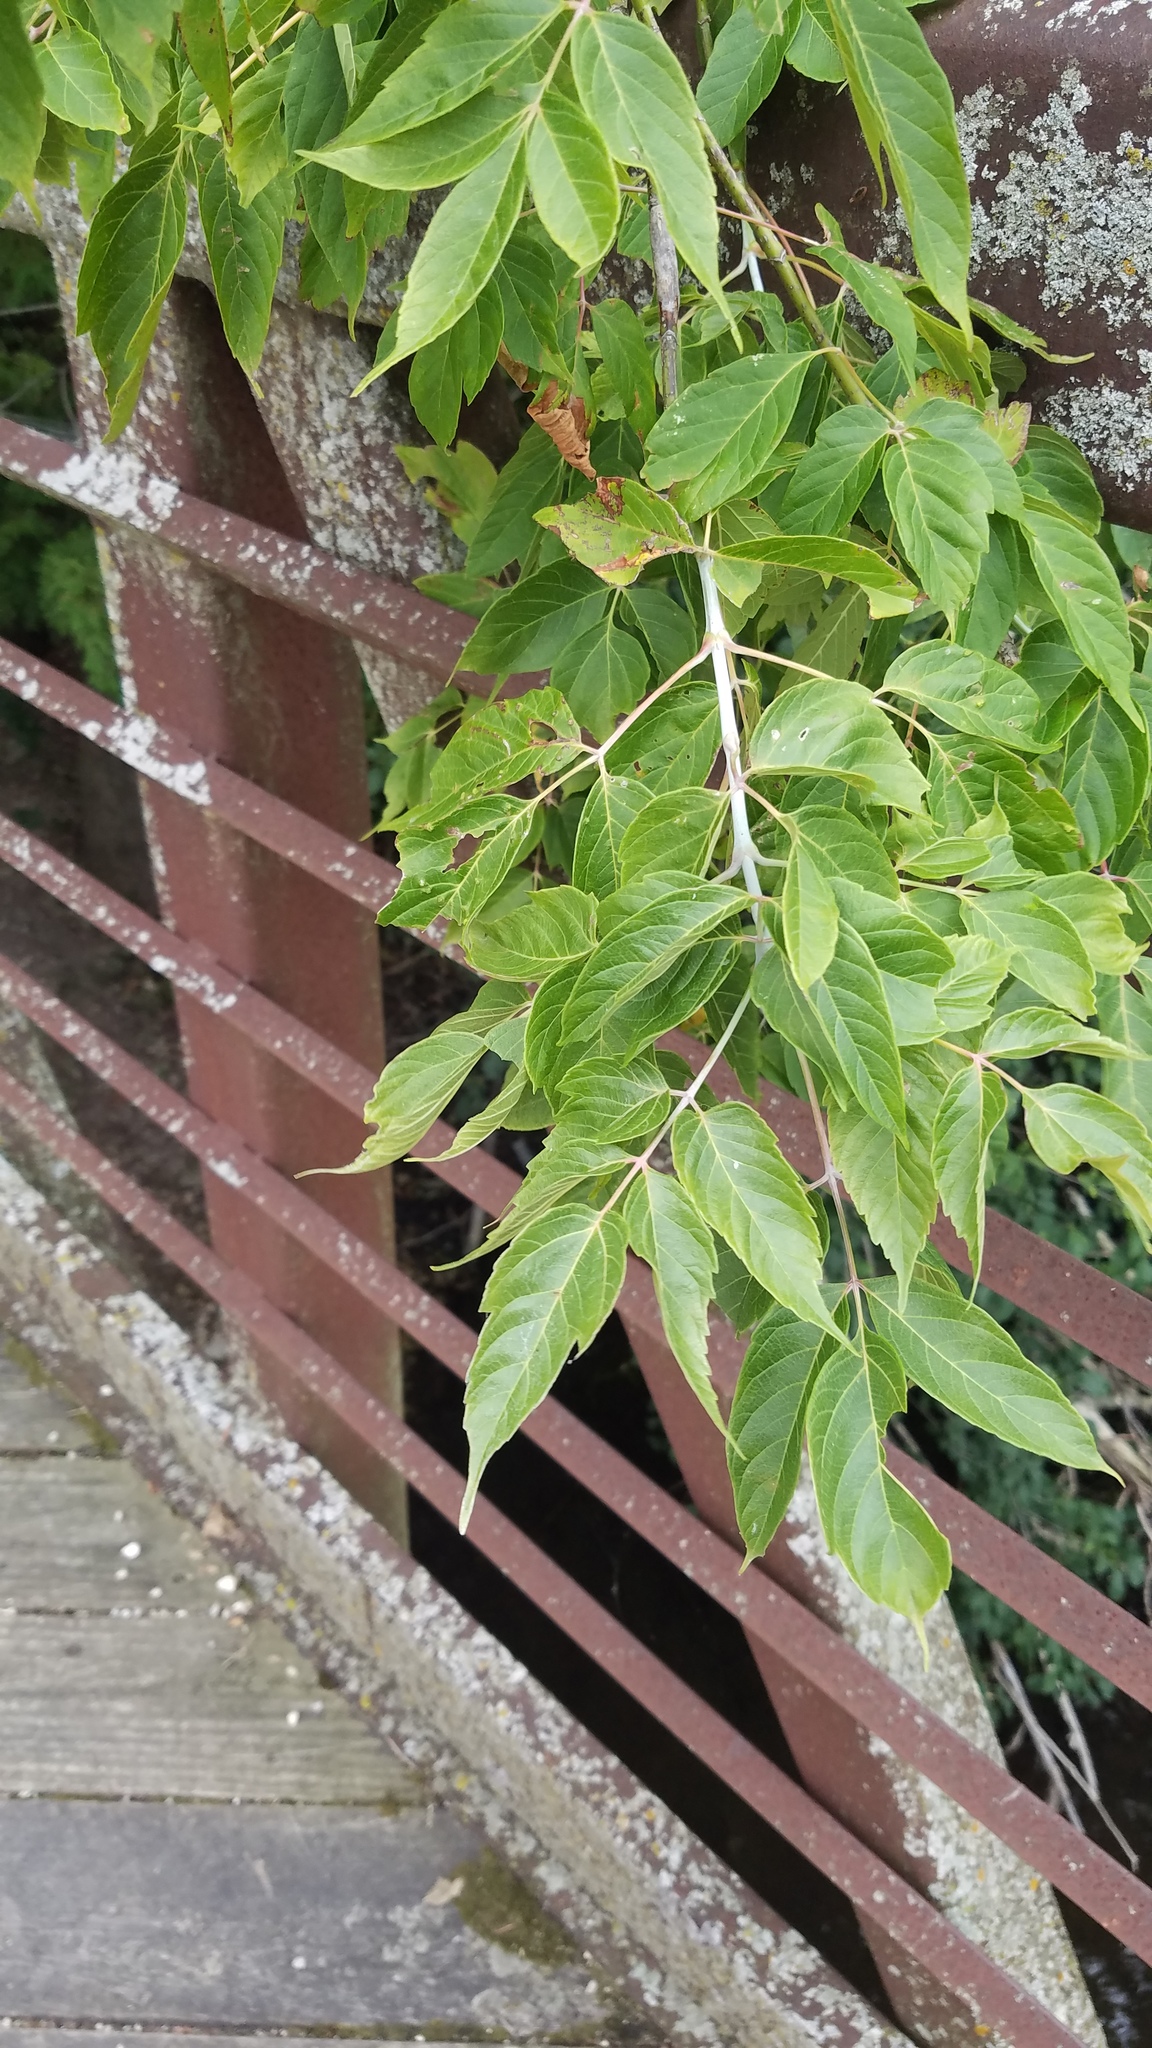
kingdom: Plantae
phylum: Tracheophyta
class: Magnoliopsida
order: Sapindales
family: Sapindaceae
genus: Acer
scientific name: Acer negundo
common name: Ashleaf maple
